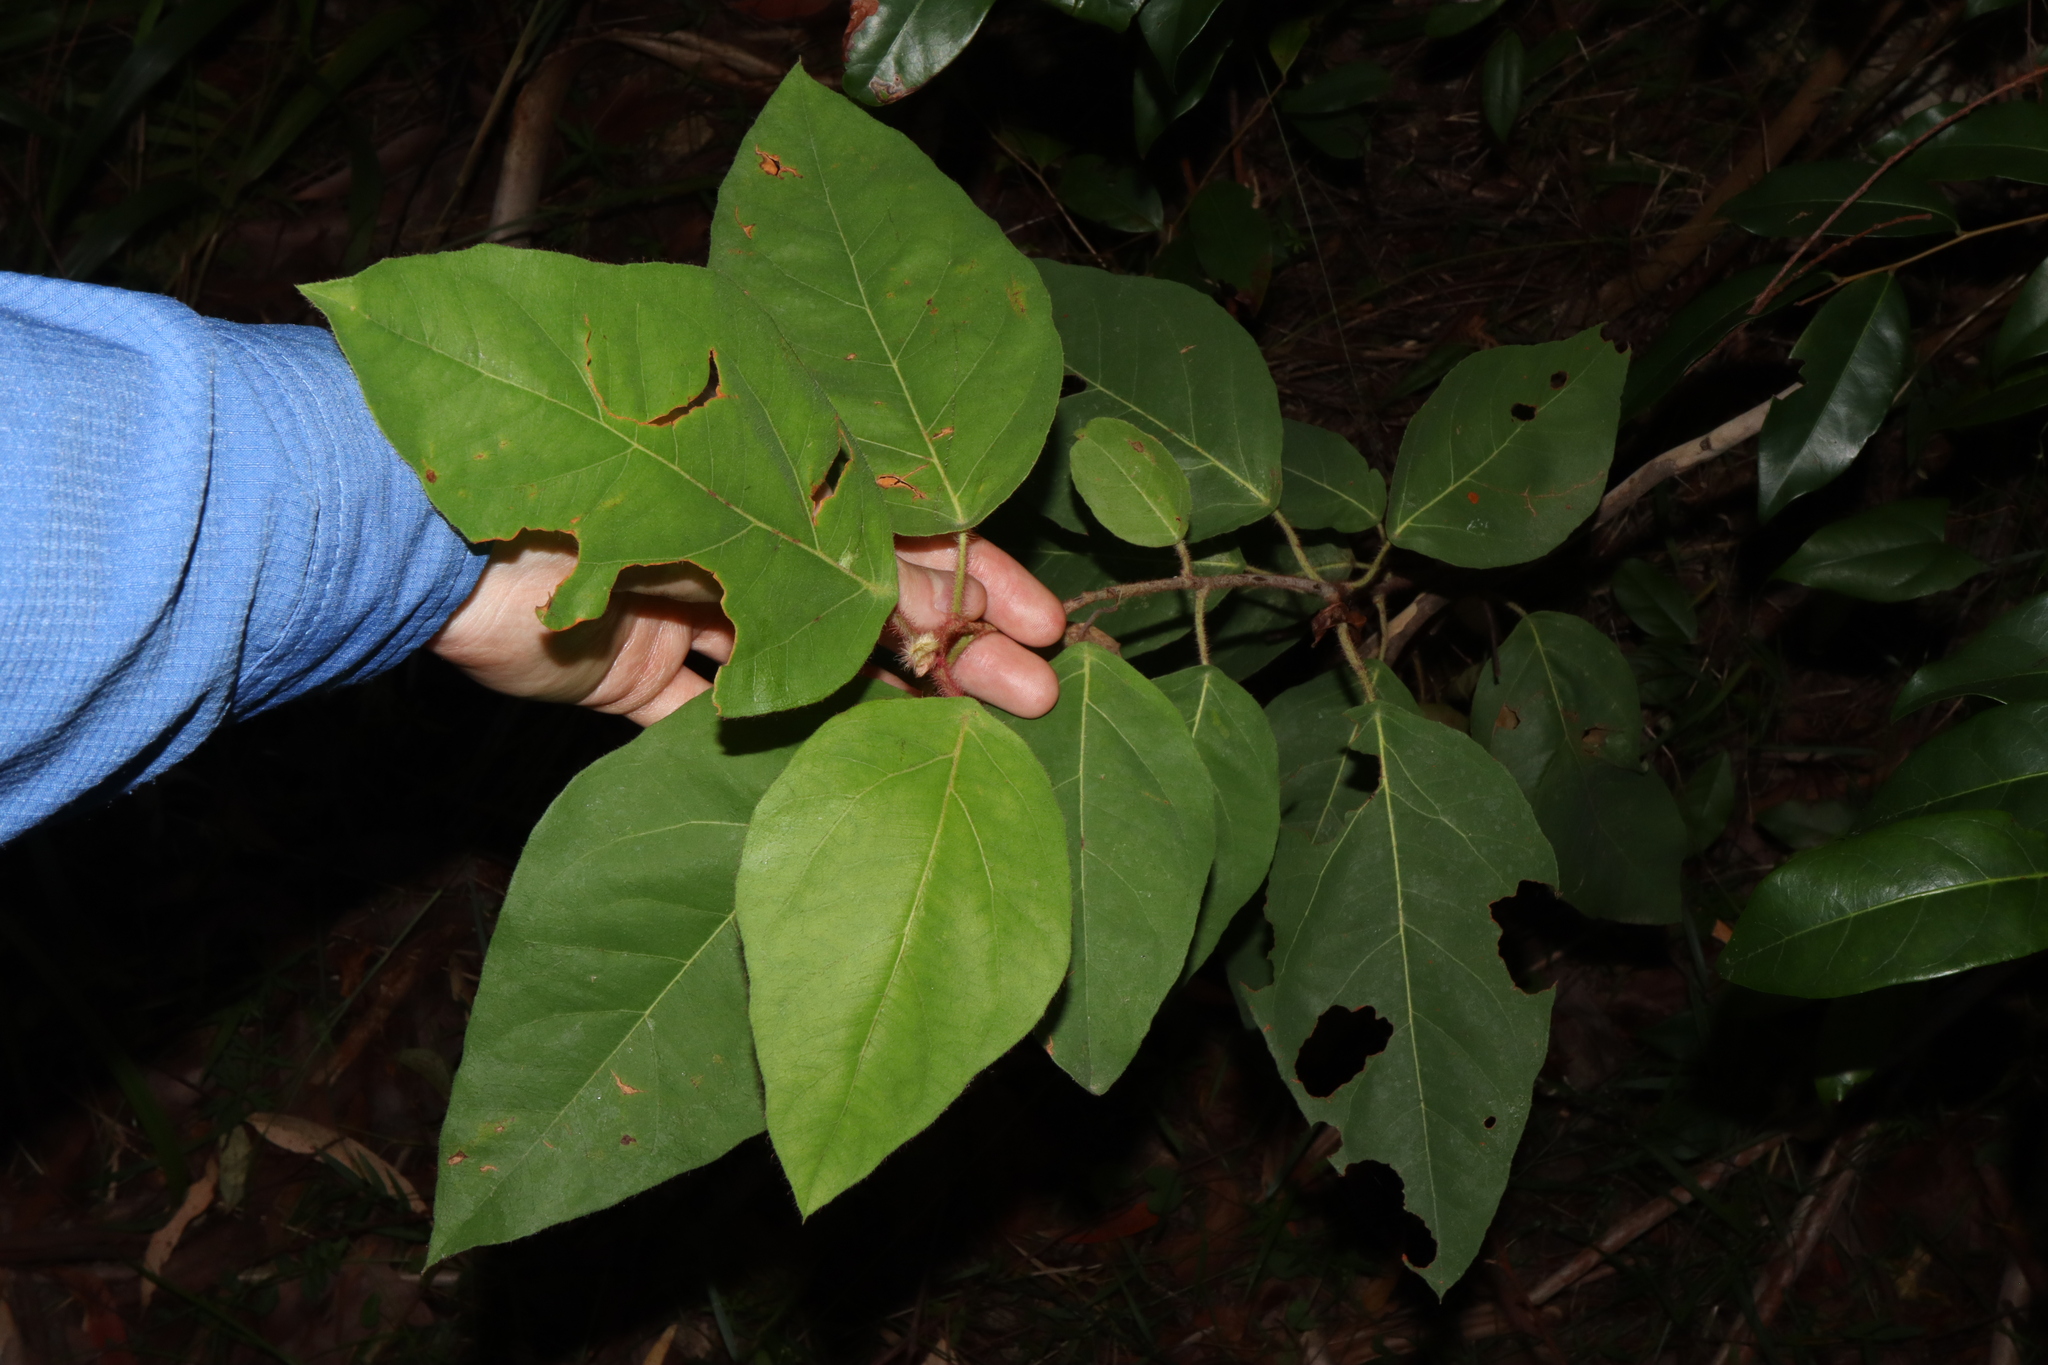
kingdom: Plantae
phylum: Tracheophyta
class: Magnoliopsida
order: Myrtales
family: Myrtaceae
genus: Corymbia
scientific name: Corymbia torelliana
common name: Cadaghi
